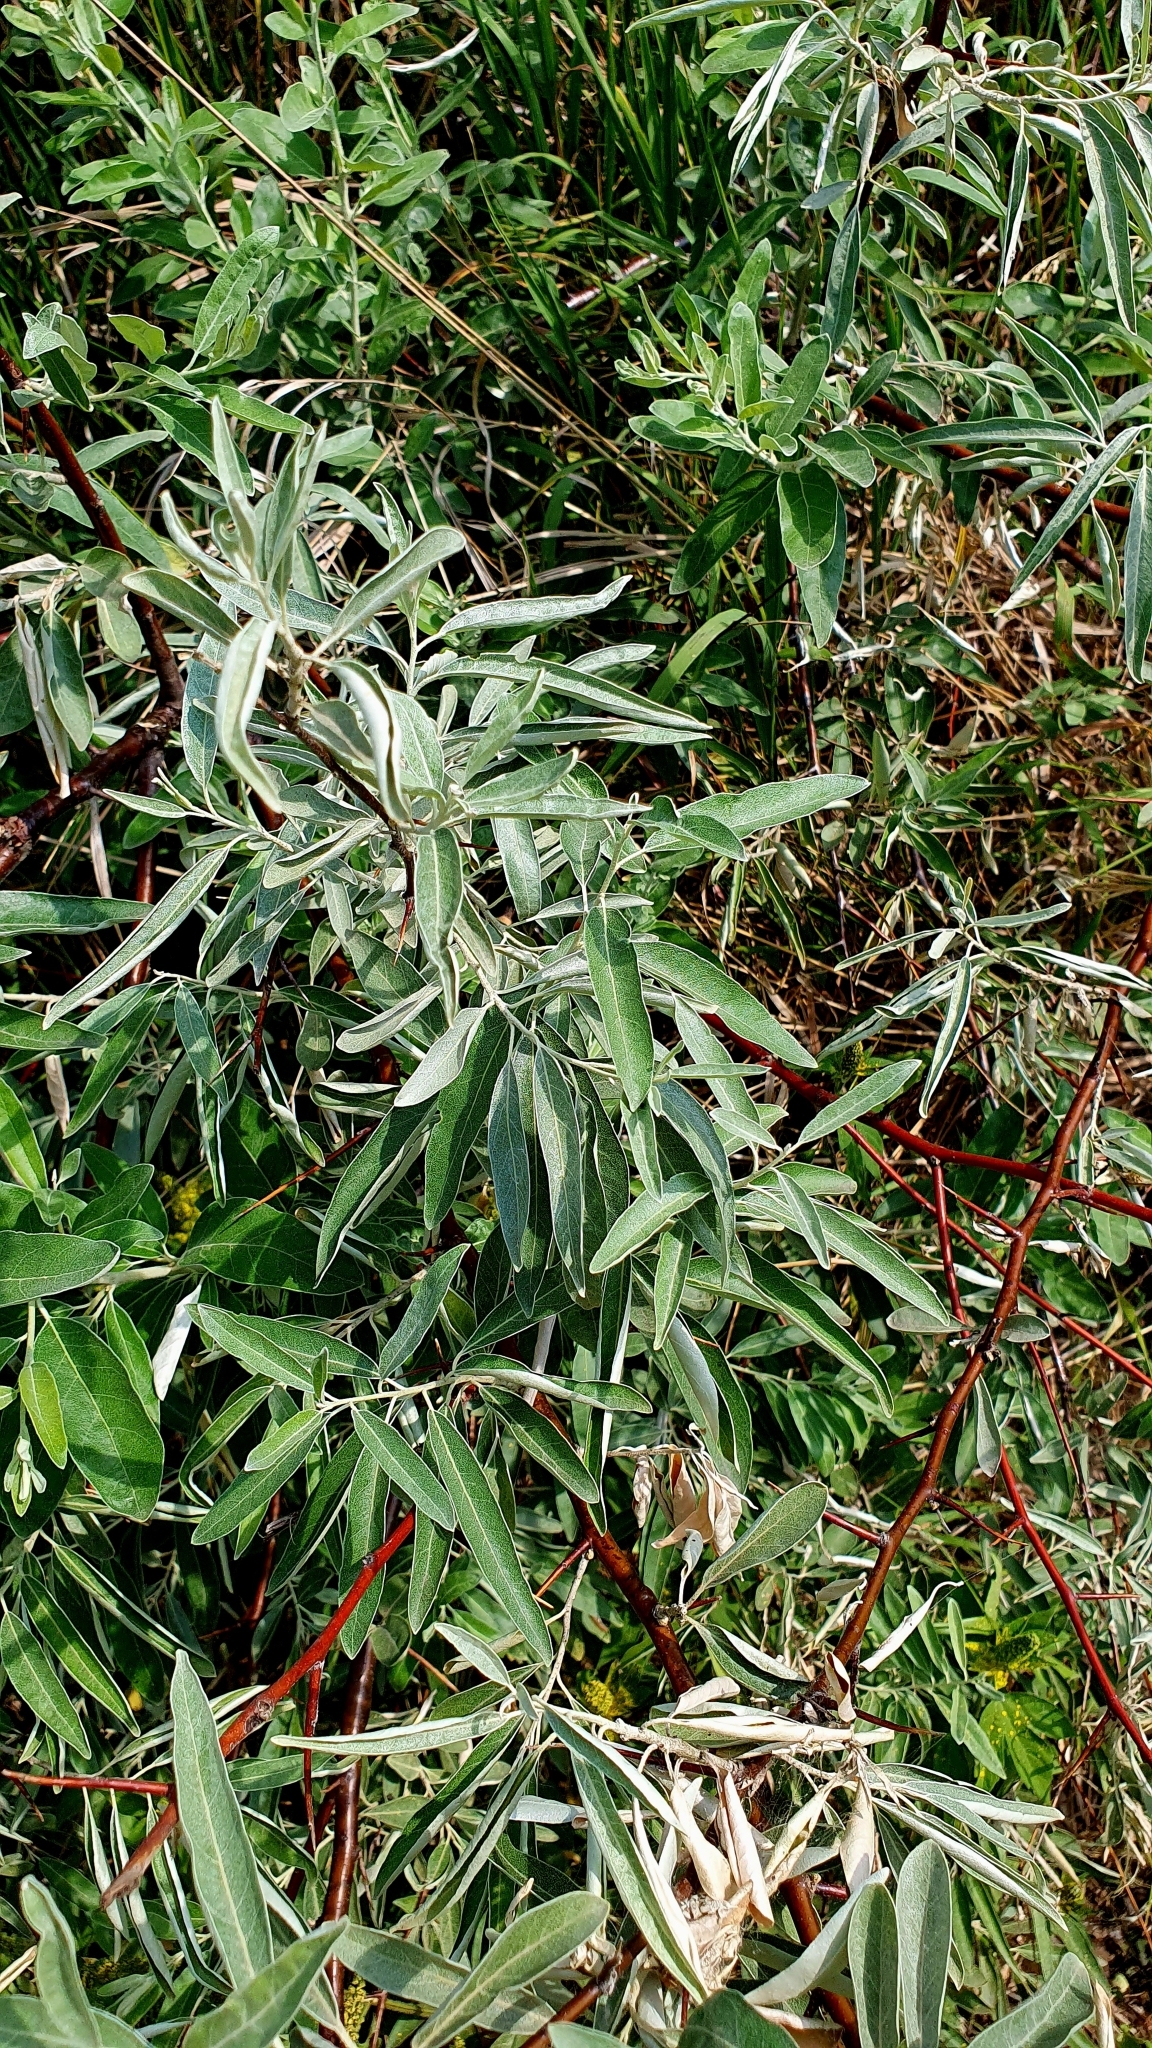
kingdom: Plantae
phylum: Tracheophyta
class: Magnoliopsida
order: Rosales
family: Elaeagnaceae
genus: Elaeagnus
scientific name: Elaeagnus angustifolia
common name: Russian olive
